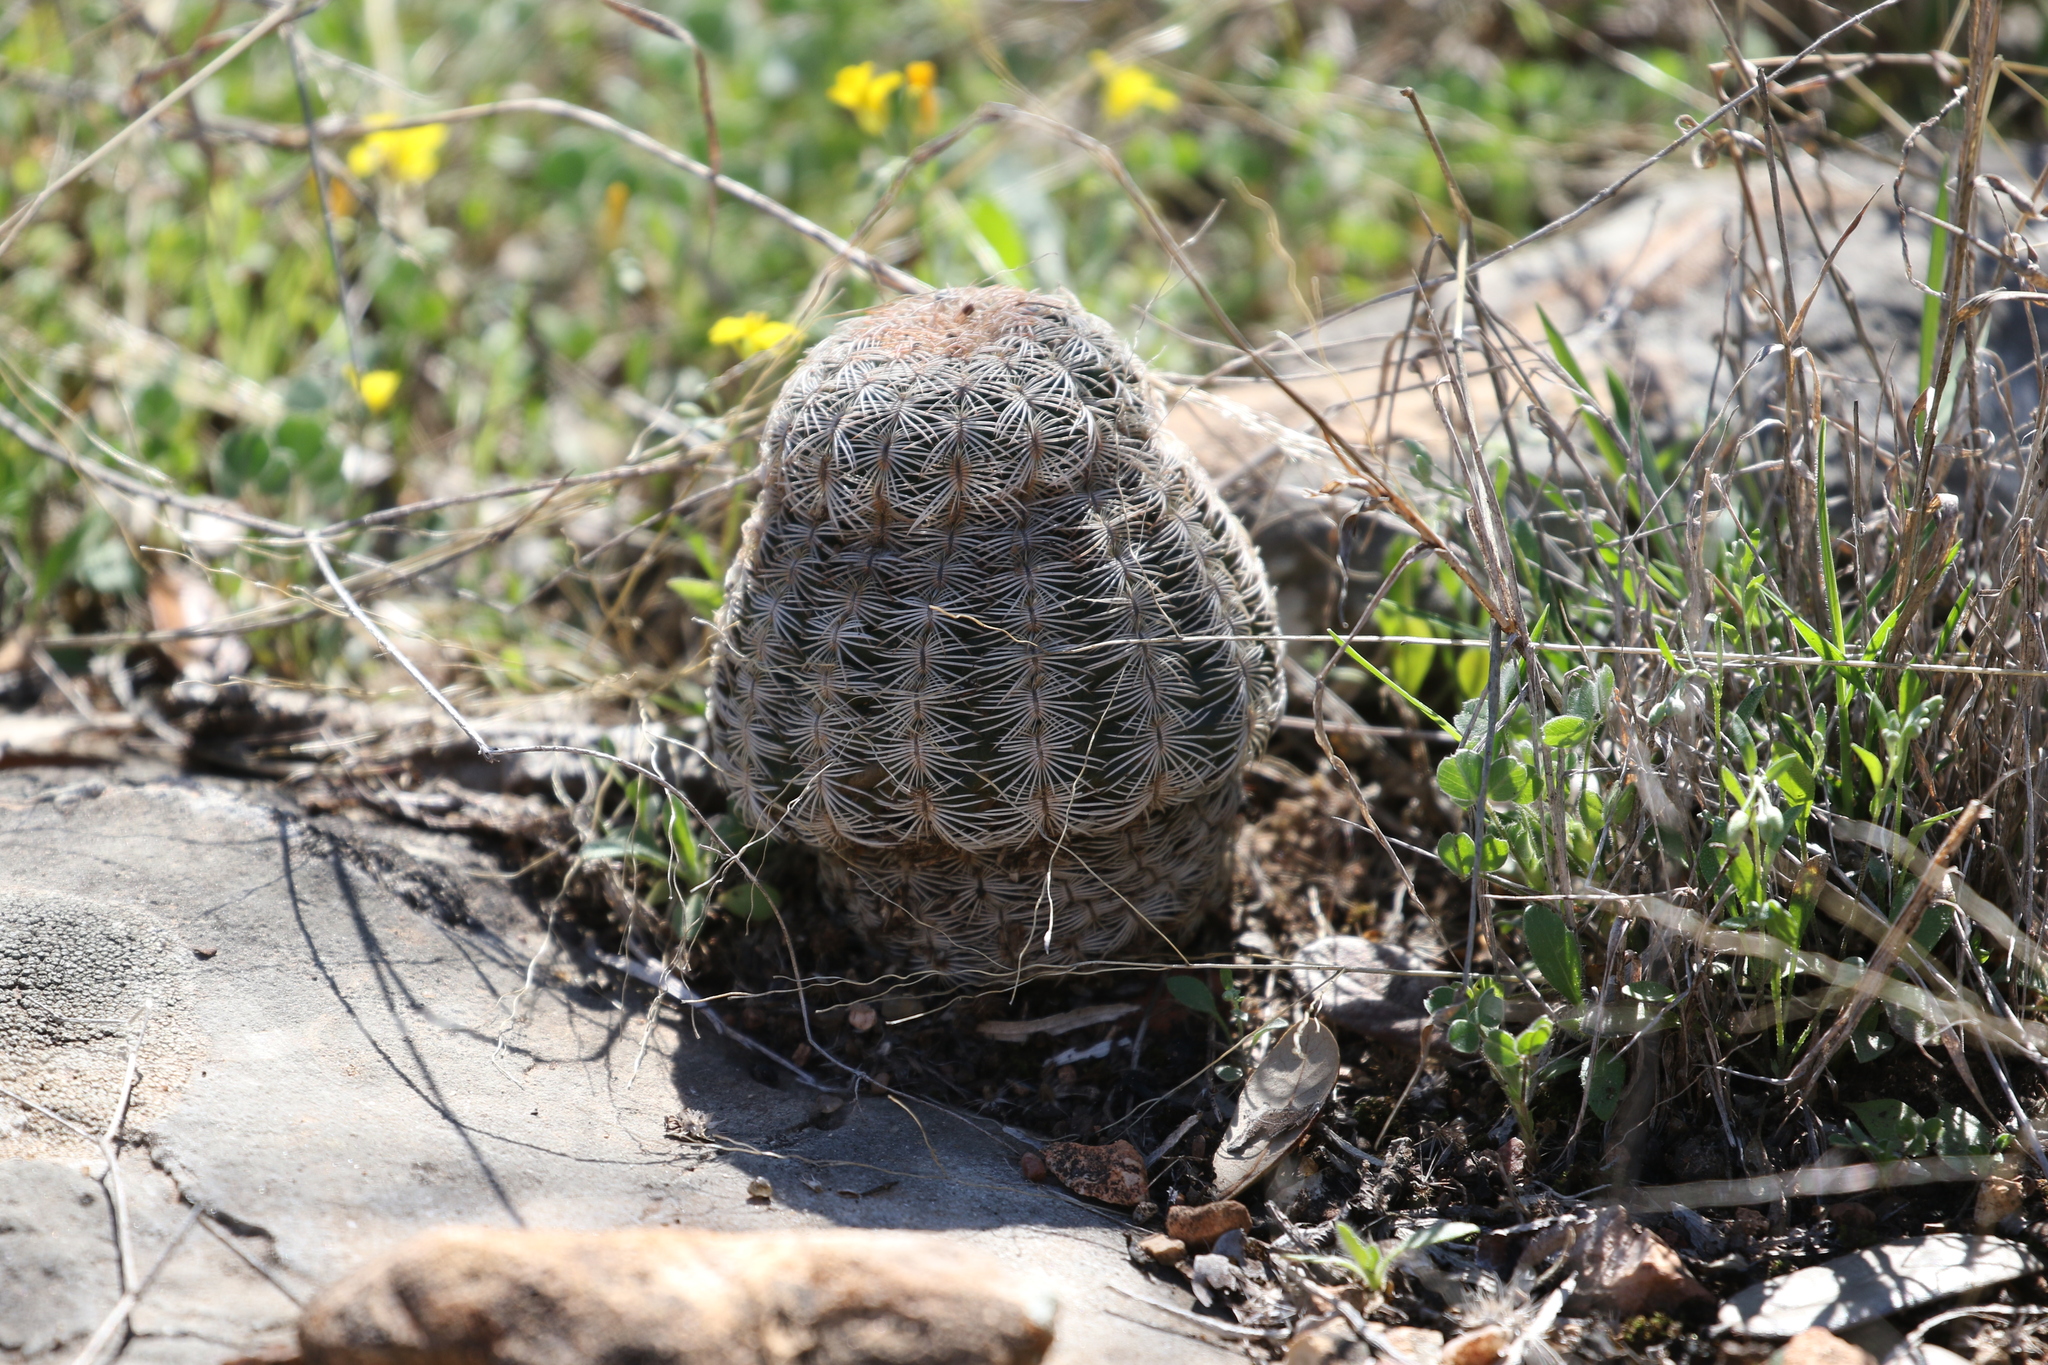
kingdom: Plantae
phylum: Tracheophyta
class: Magnoliopsida
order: Caryophyllales
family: Cactaceae
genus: Echinocereus
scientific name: Echinocereus reichenbachii
